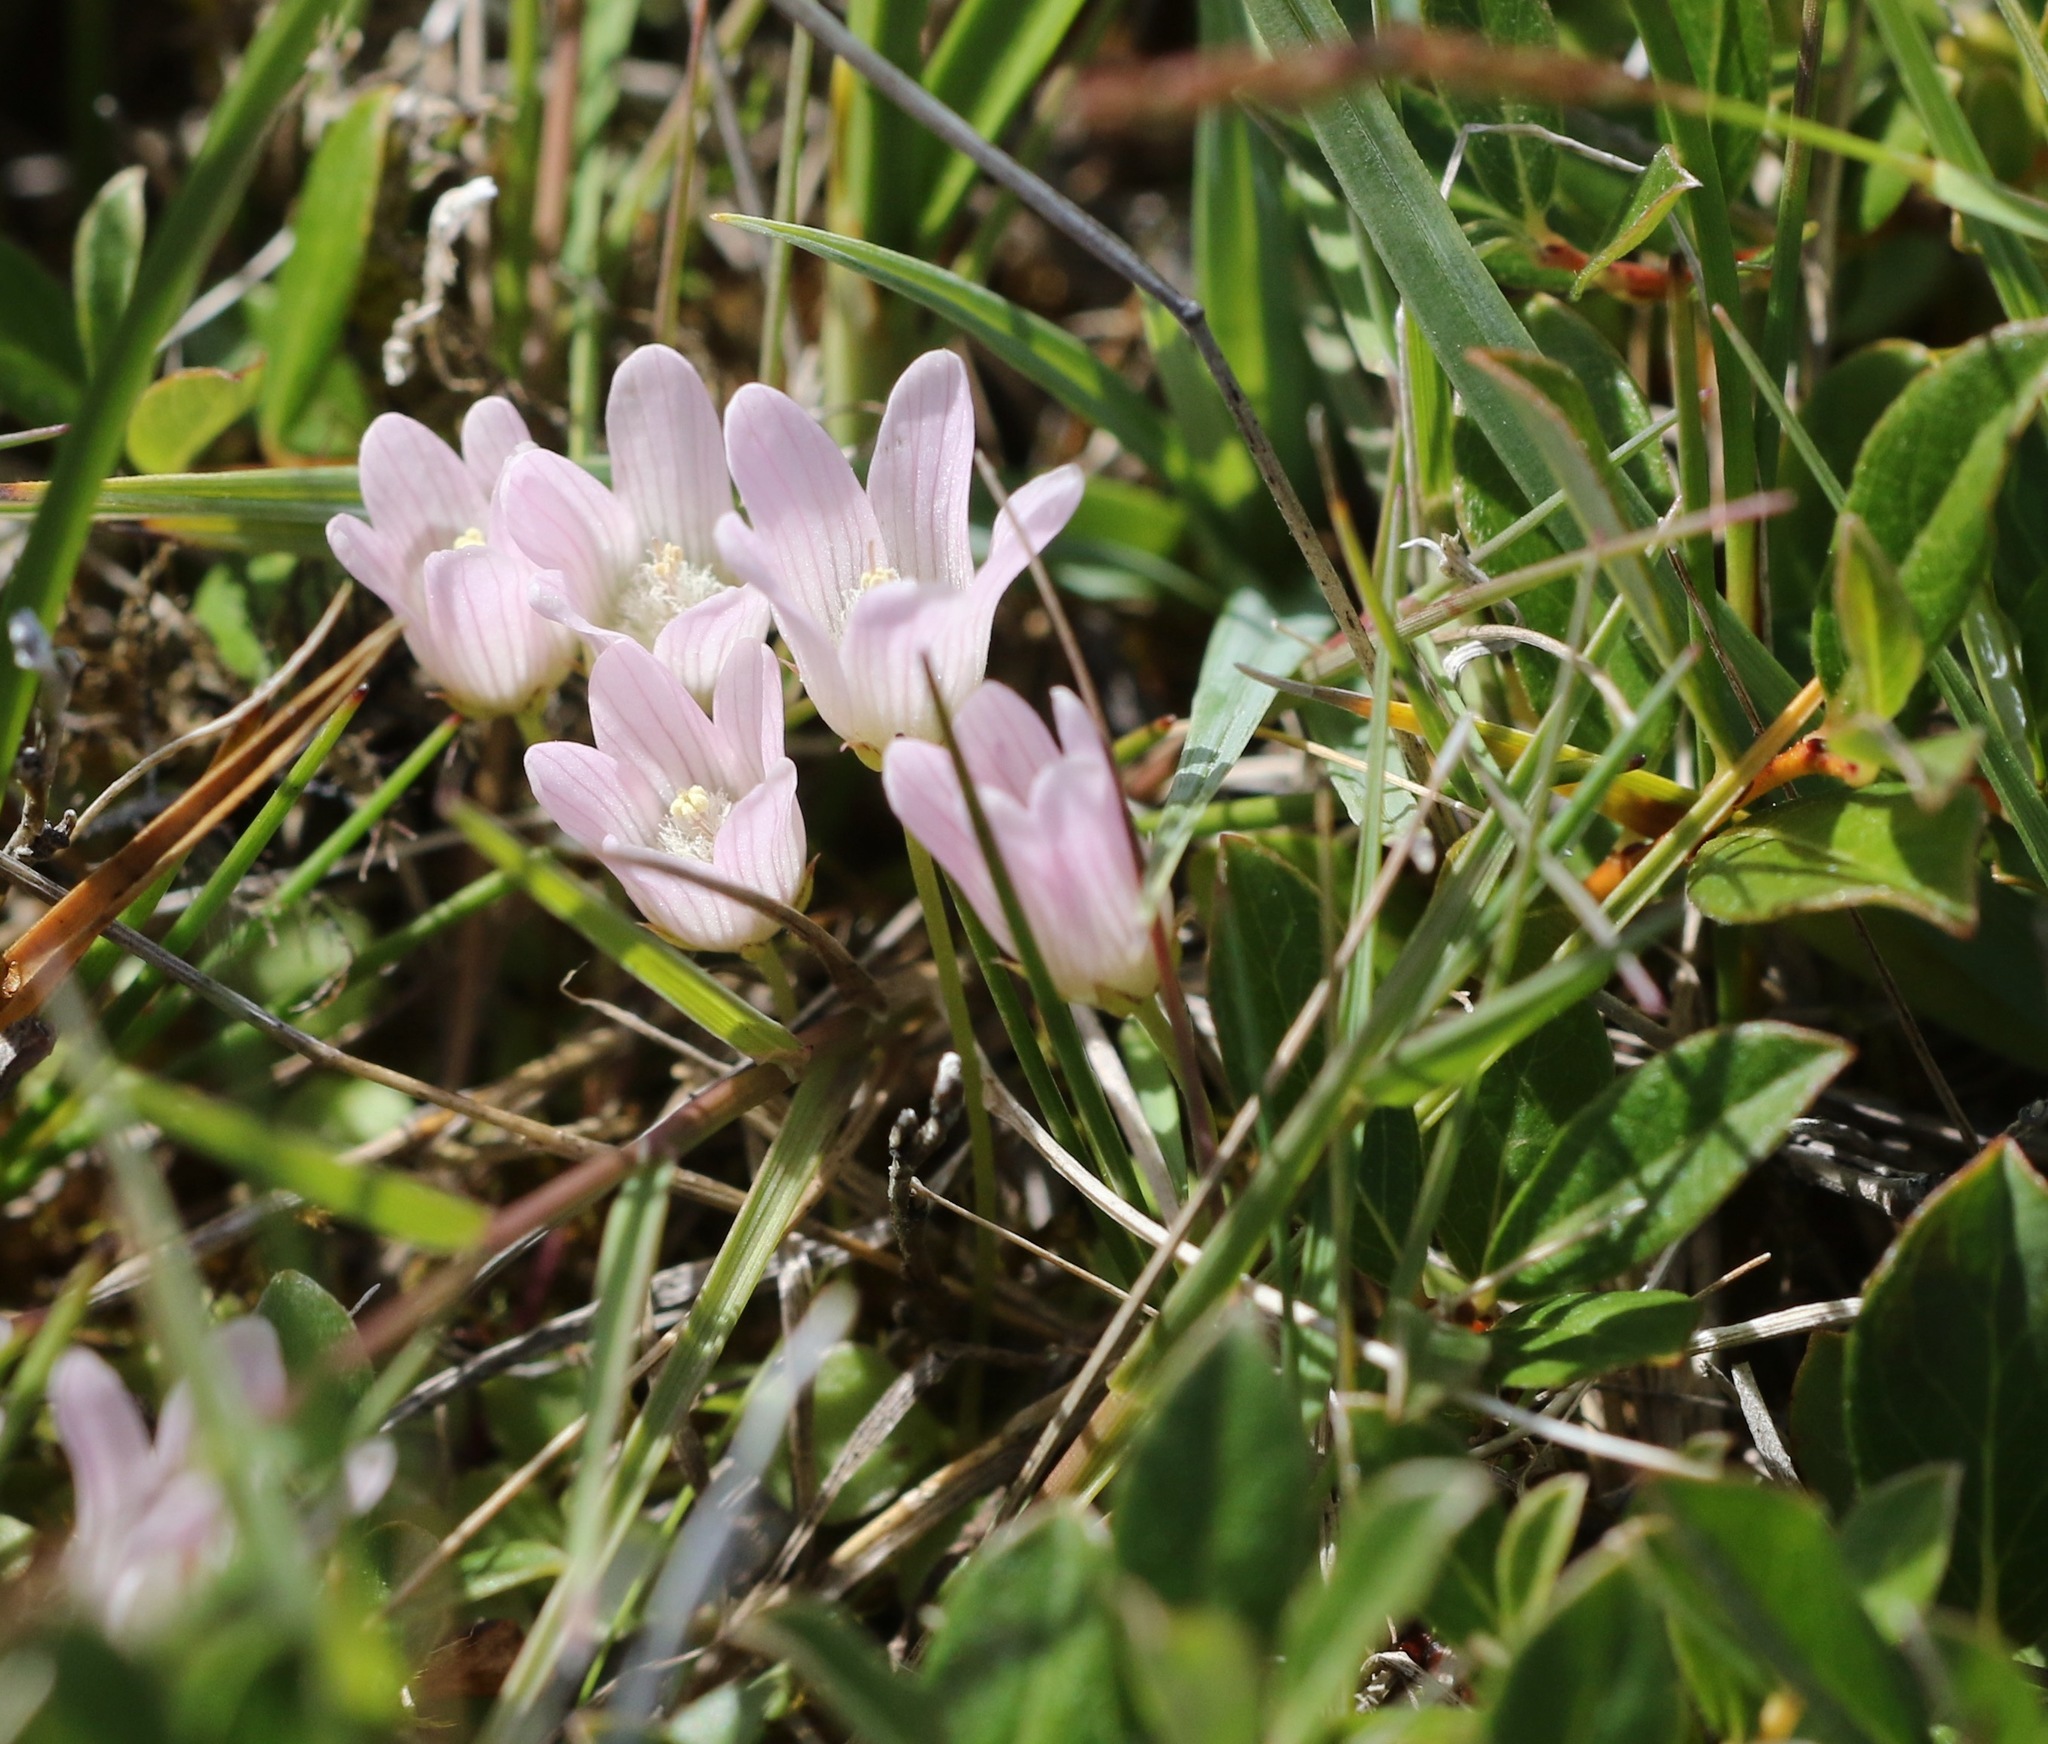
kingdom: Plantae
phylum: Tracheophyta
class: Magnoliopsida
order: Ericales
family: Primulaceae
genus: Lysimachia
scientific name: Lysimachia tenella
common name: European bog pimpernel
